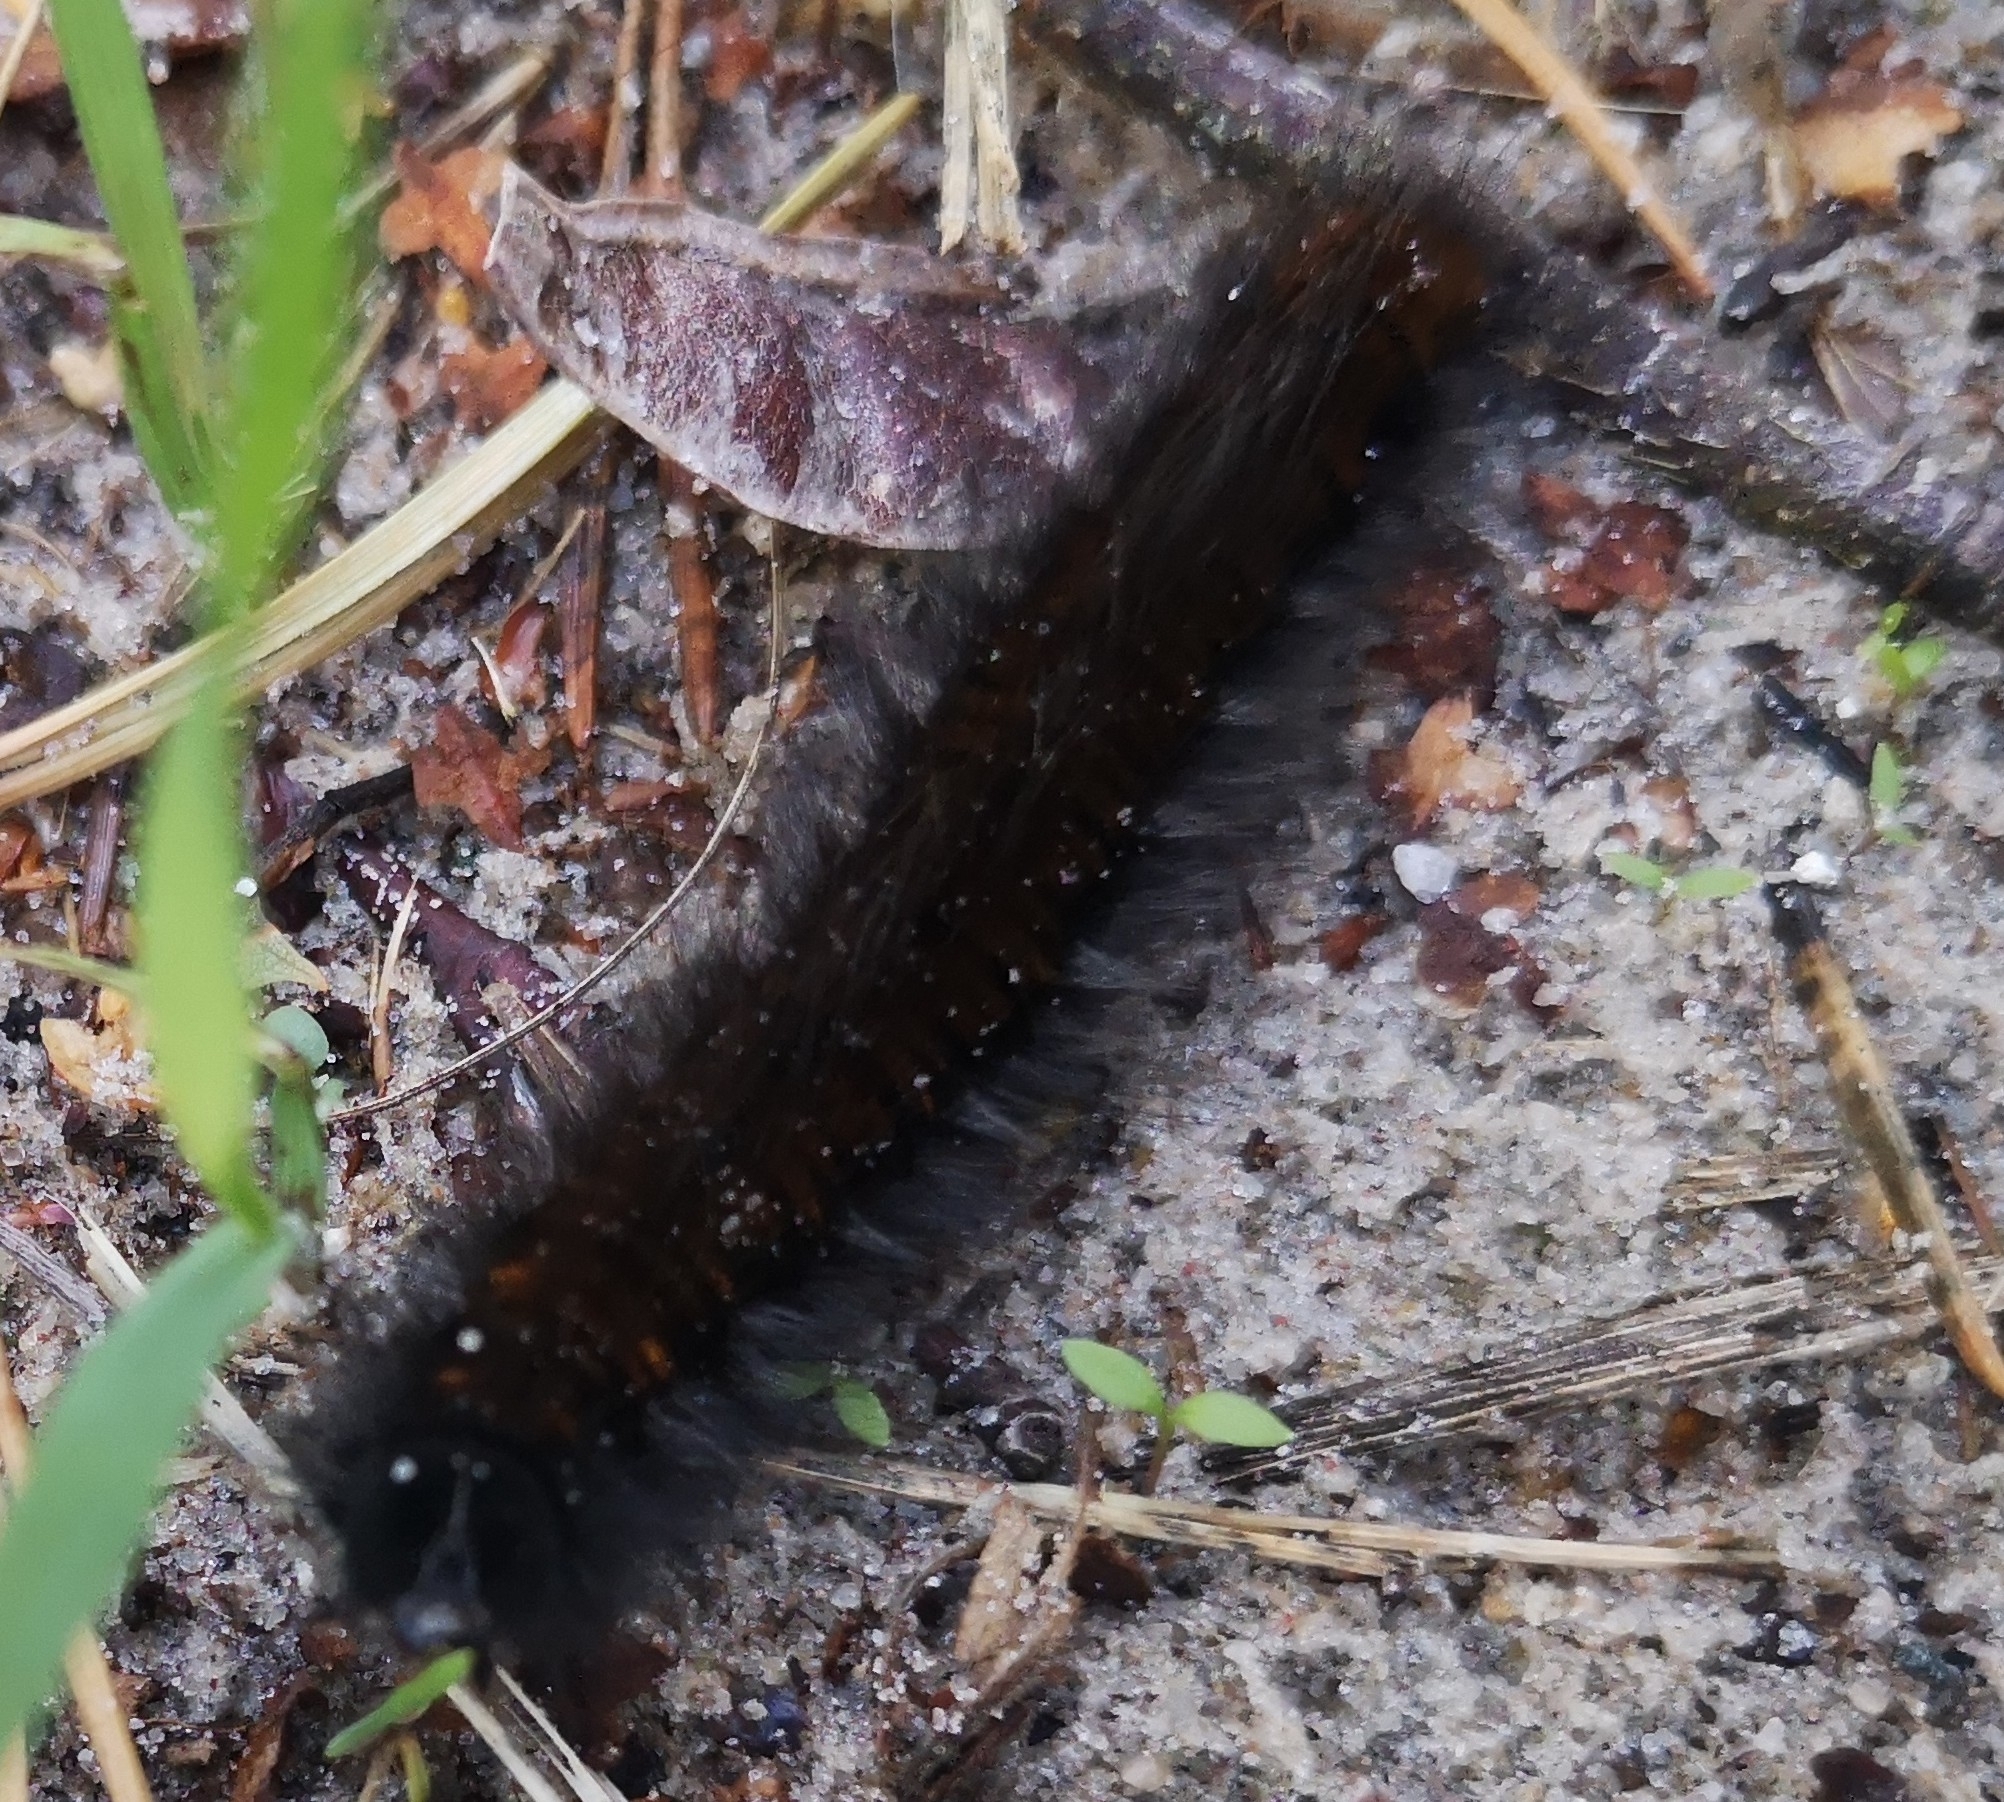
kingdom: Animalia
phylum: Arthropoda
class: Insecta
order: Lepidoptera
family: Lasiocampidae
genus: Macrothylacia
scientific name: Macrothylacia rubi
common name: Fox moth
